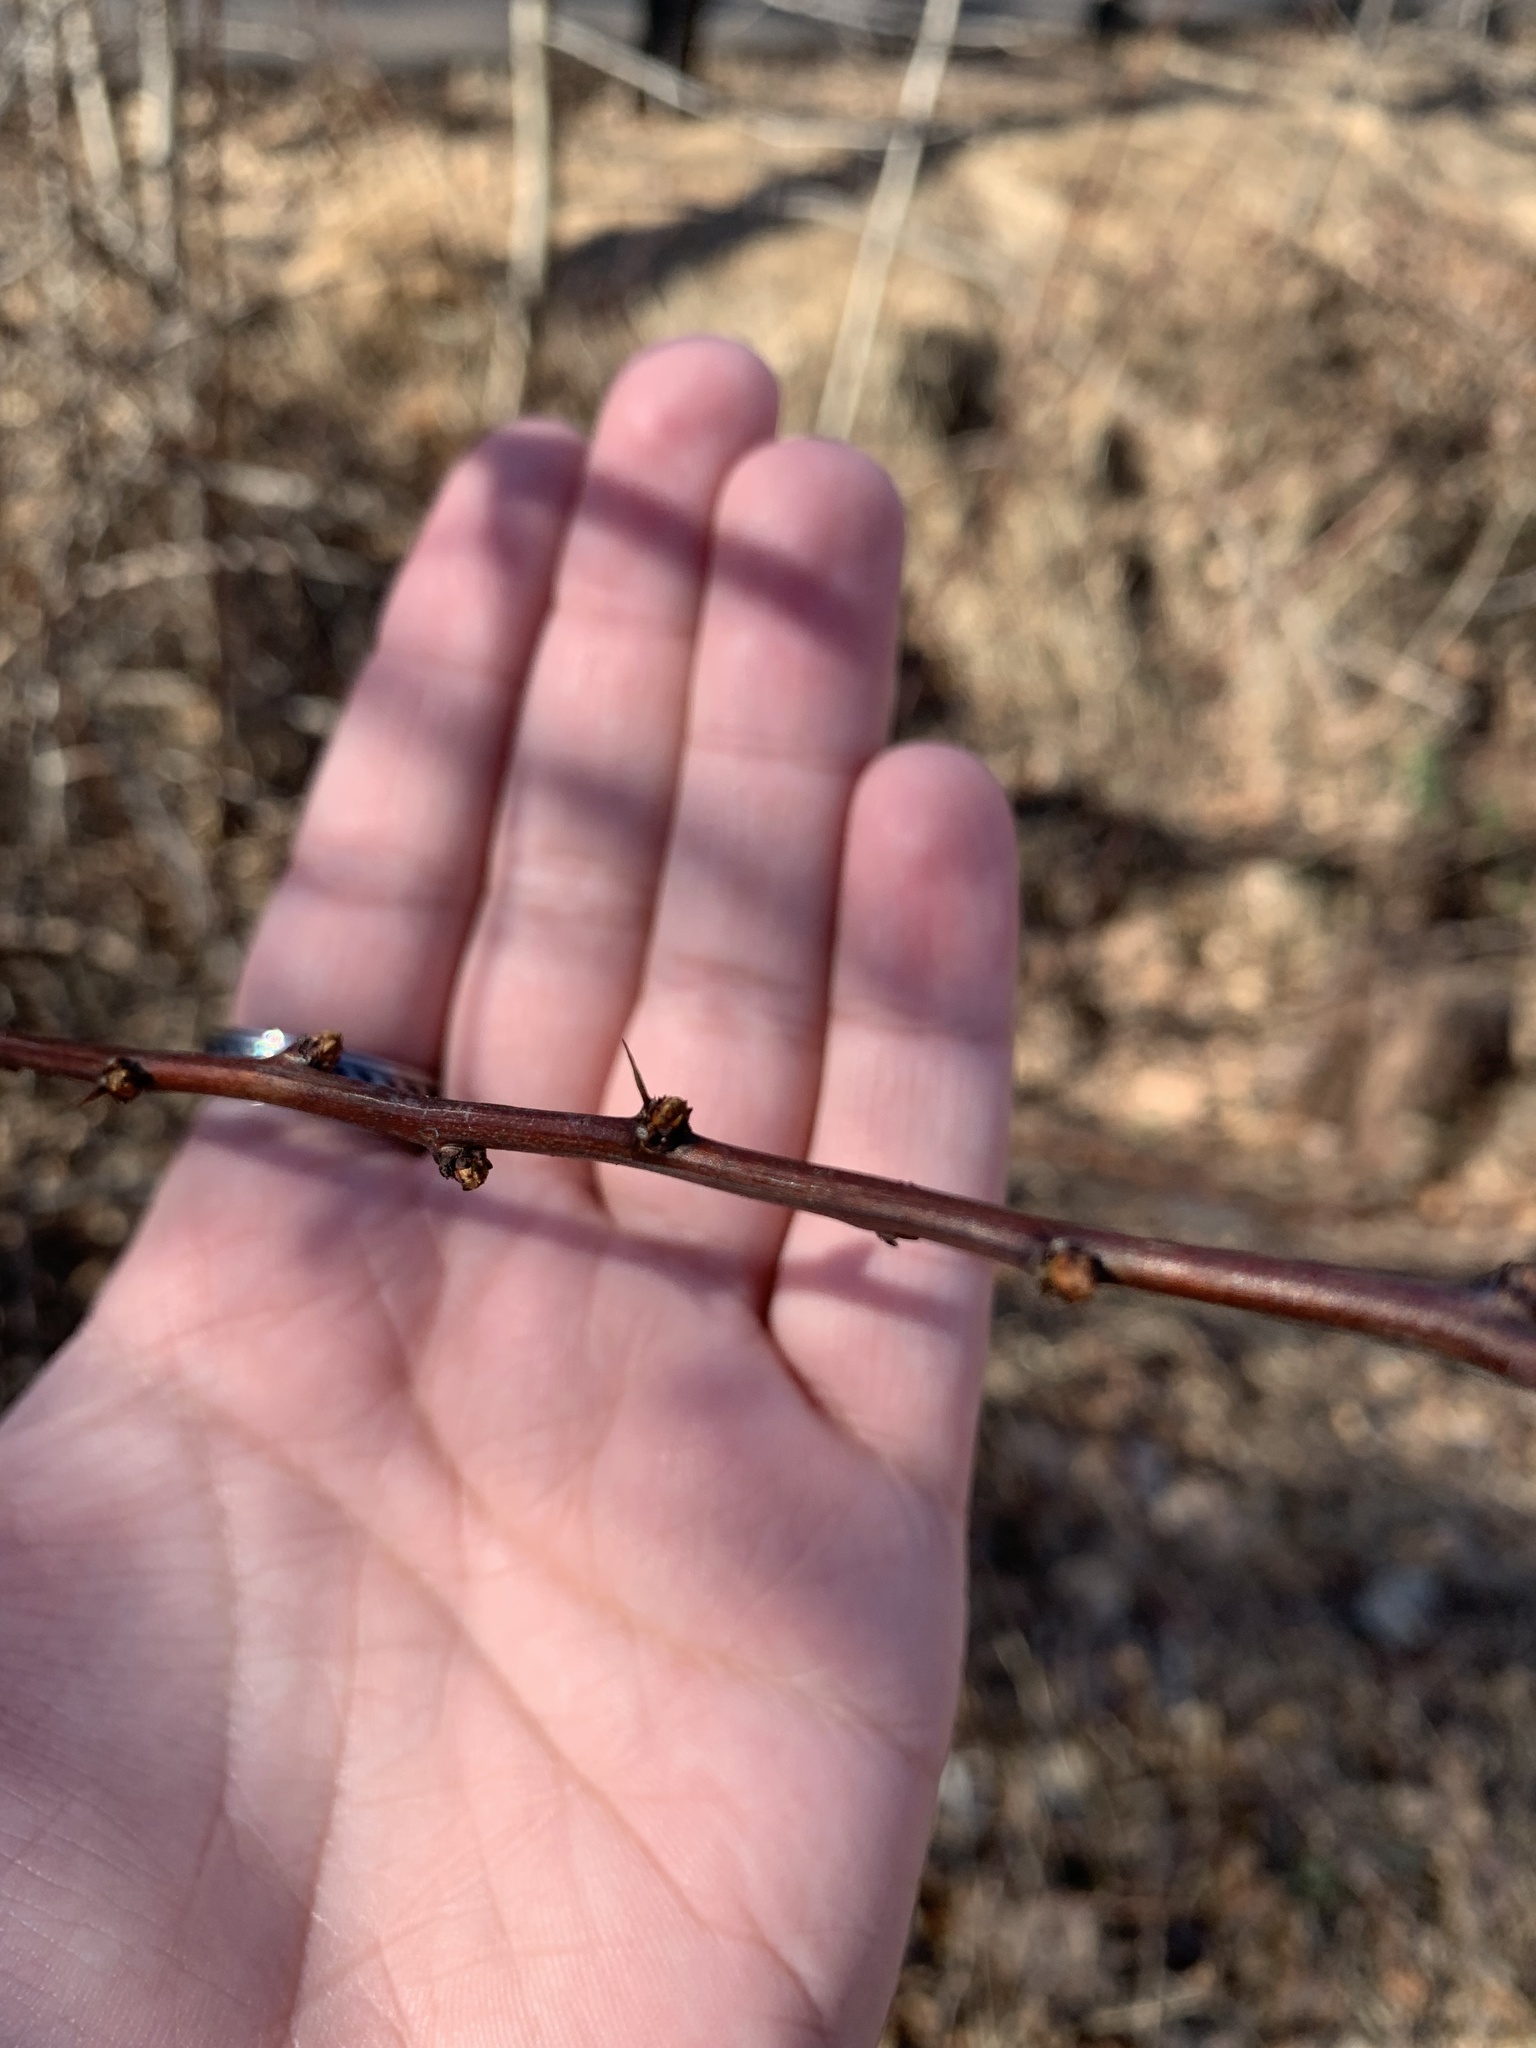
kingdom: Plantae
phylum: Tracheophyta
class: Magnoliopsida
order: Ranunculales
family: Berberidaceae
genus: Berberis
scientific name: Berberis thunbergii
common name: Japanese barberry
